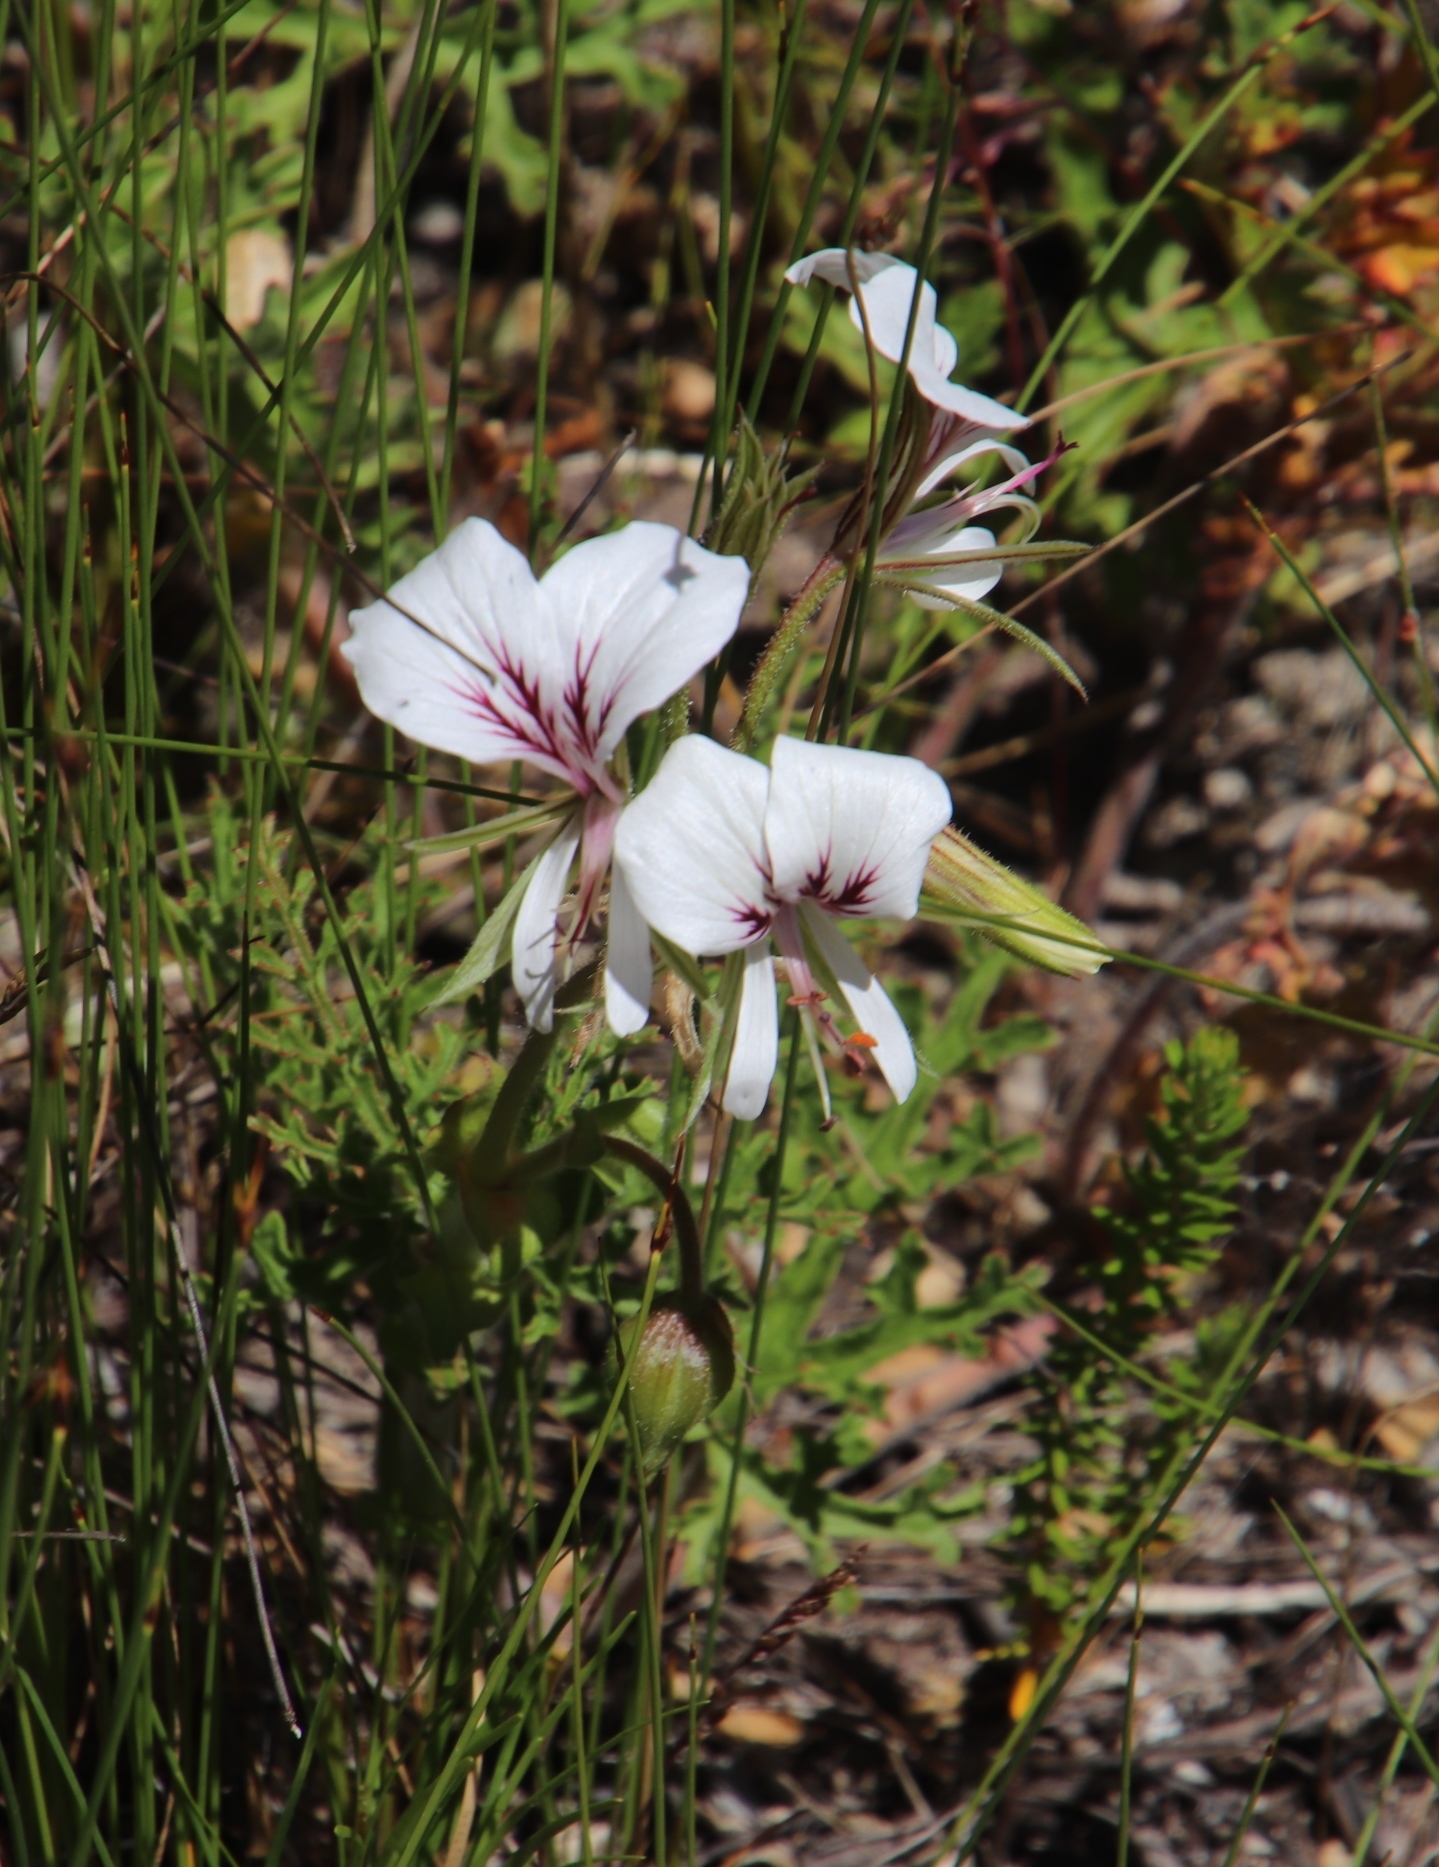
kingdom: Plantae
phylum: Tracheophyta
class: Magnoliopsida
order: Geraniales
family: Geraniaceae
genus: Pelargonium
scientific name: Pelargonium suburbanum
